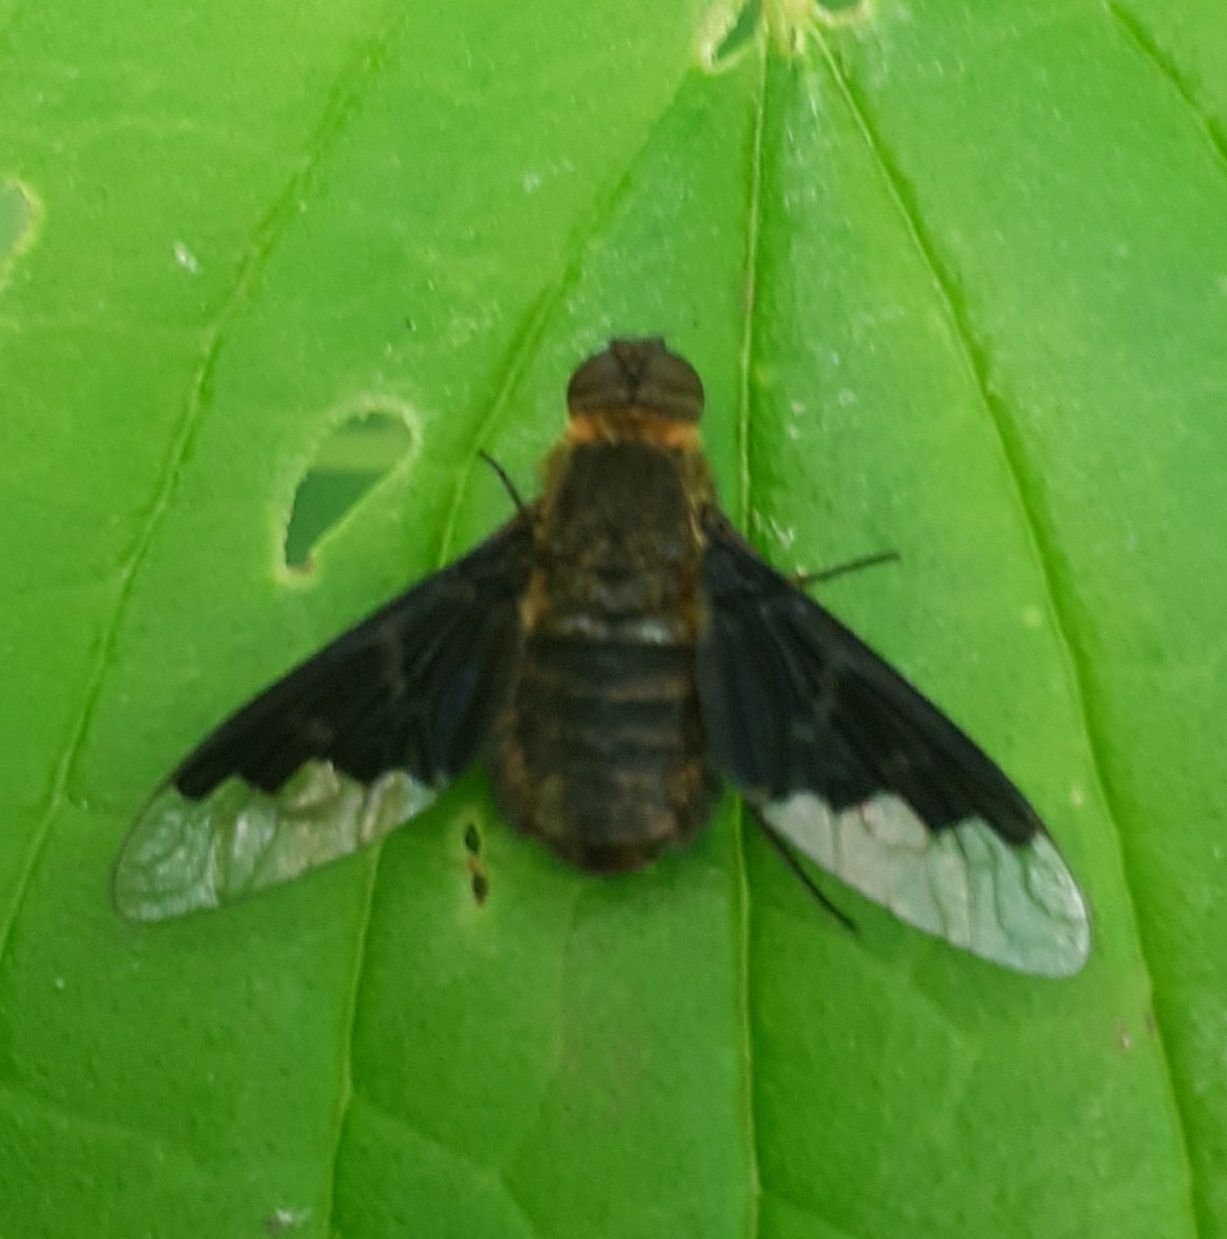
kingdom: Animalia
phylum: Arthropoda
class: Insecta
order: Diptera
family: Bombyliidae
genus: Hemipenthes
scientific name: Hemipenthes morio
